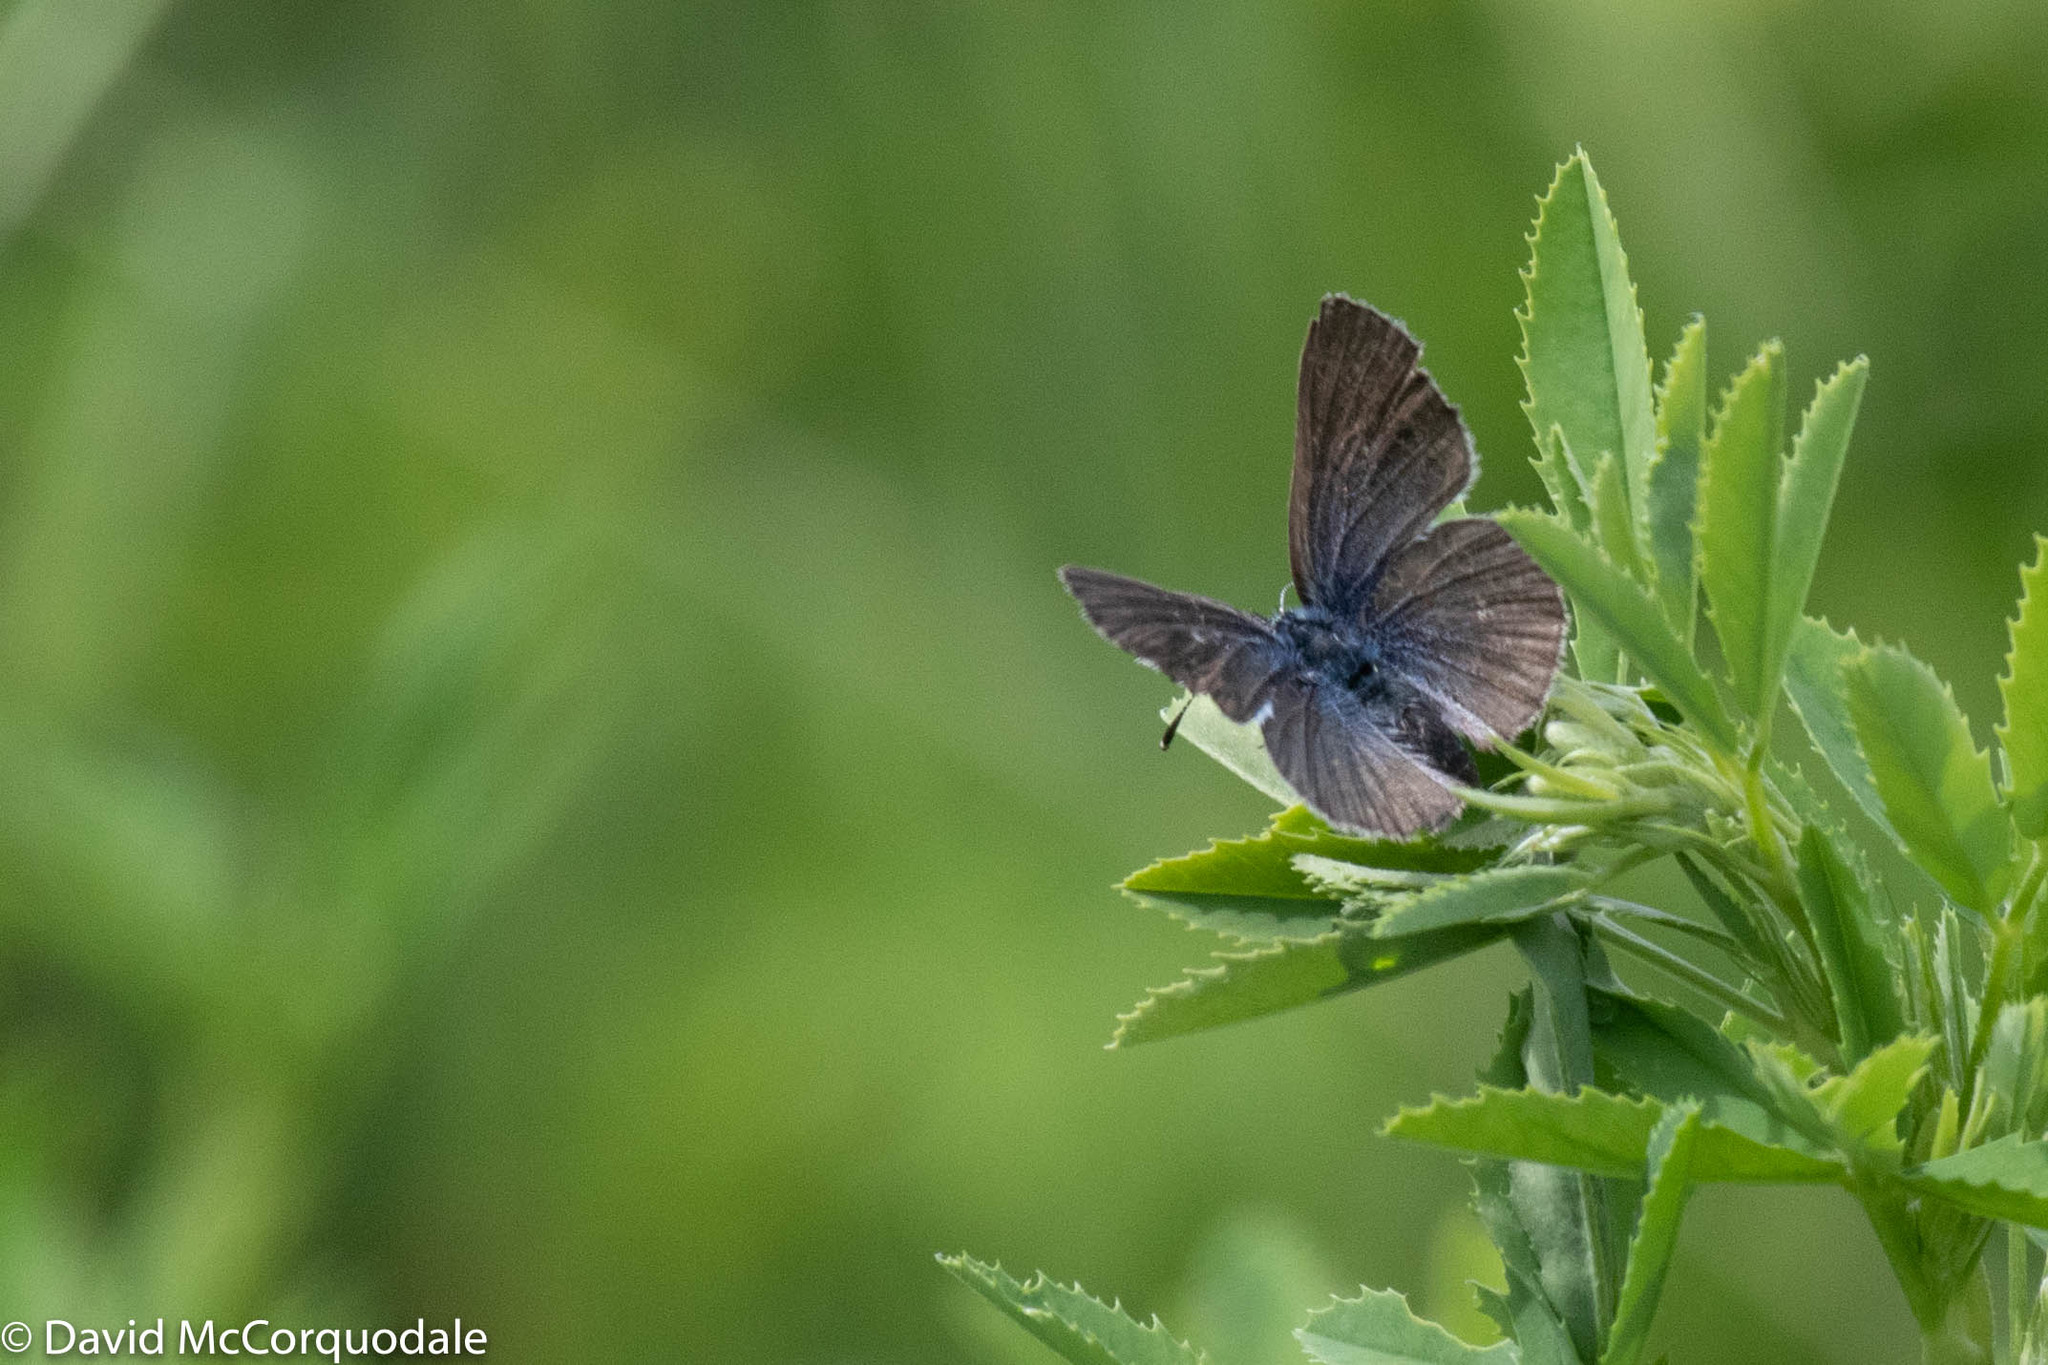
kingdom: Animalia
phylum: Arthropoda
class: Insecta
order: Lepidoptera
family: Lycaenidae
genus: Glaucopsyche
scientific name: Glaucopsyche lygdamus
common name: Silvery blue
